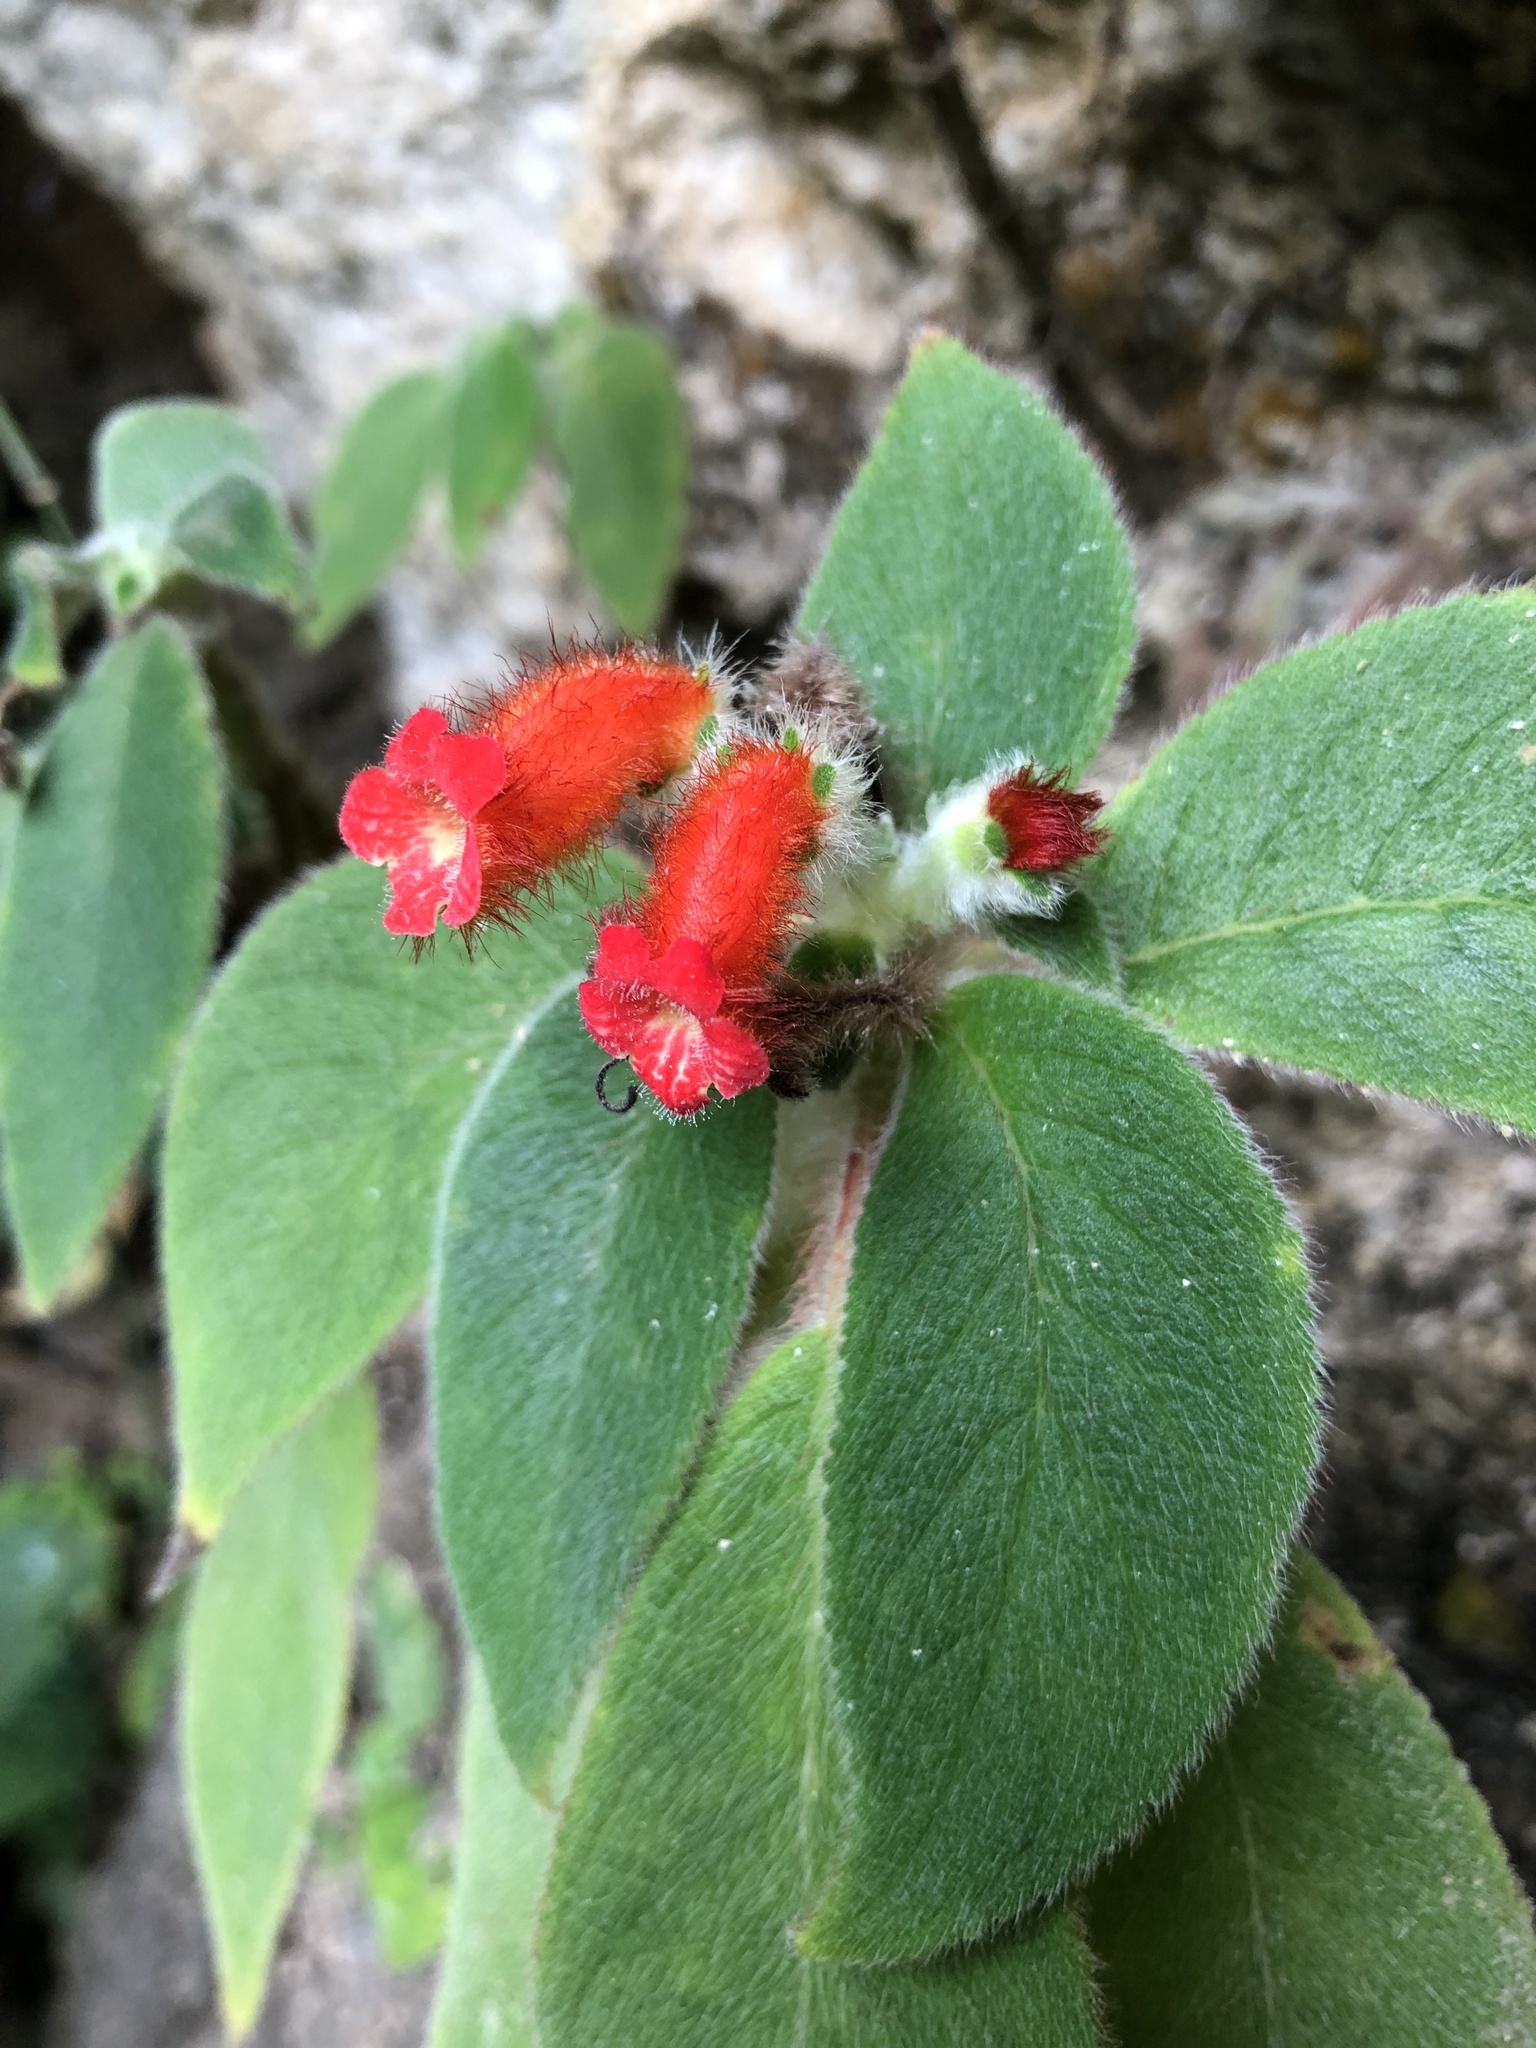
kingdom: Plantae
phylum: Tracheophyta
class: Magnoliopsida
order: Lamiales
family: Gesneriaceae
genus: Kohleria
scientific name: Kohleria spicata
